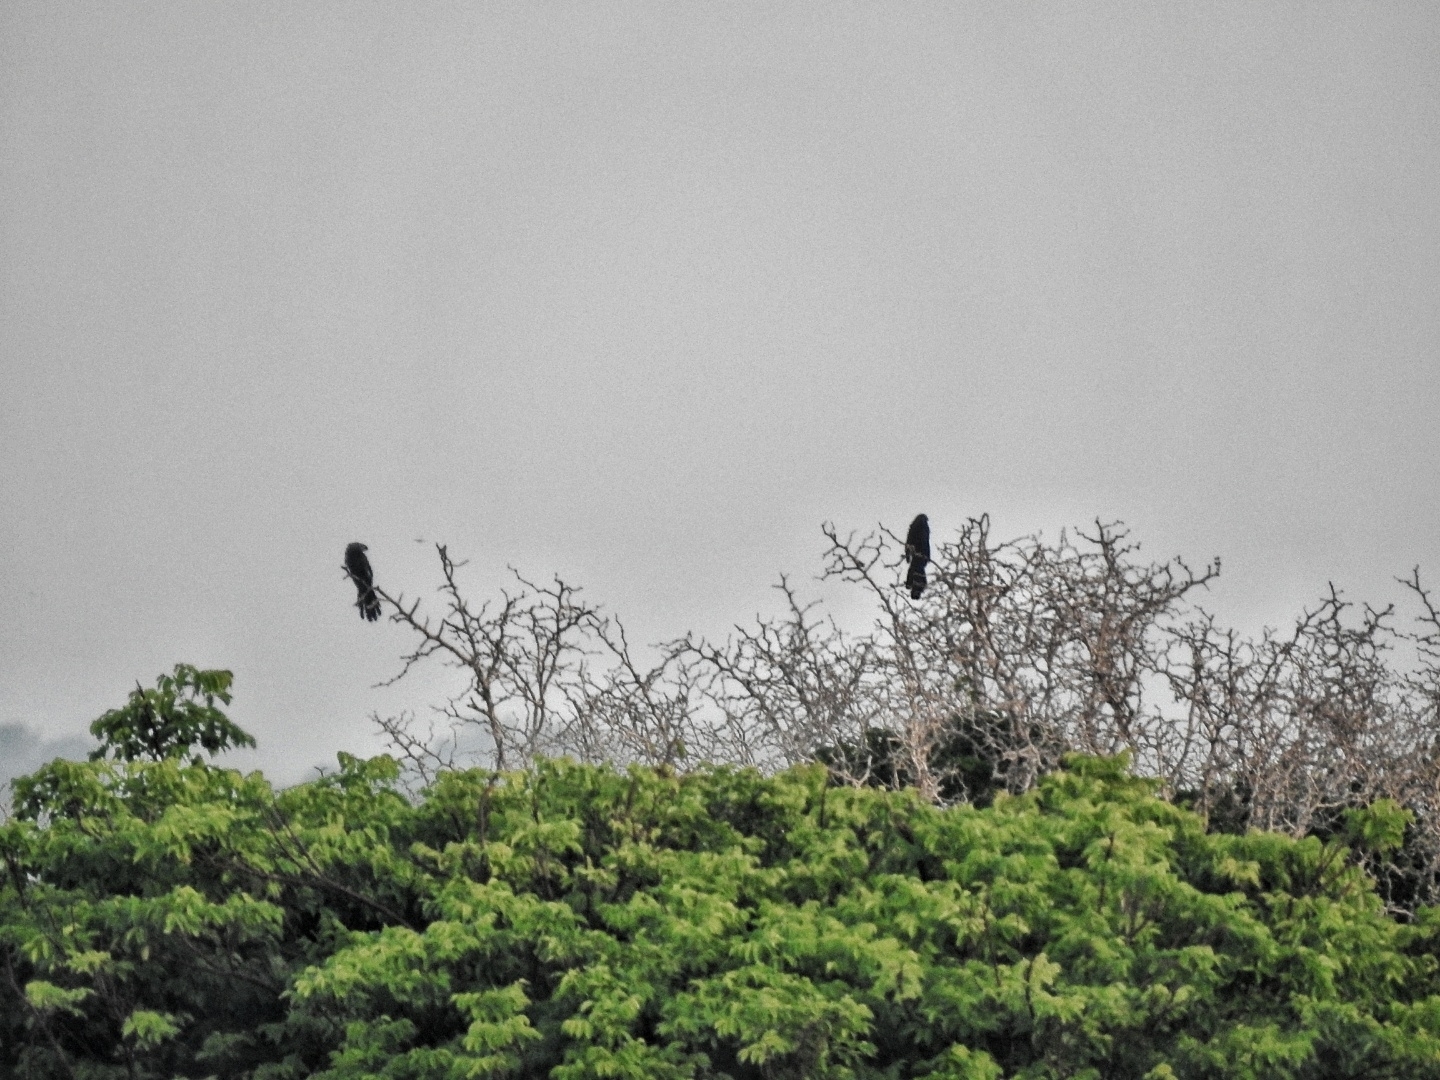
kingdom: Animalia
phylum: Chordata
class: Aves
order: Cuculiformes
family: Cuculidae
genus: Crotophaga
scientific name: Crotophaga sulcirostris
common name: Groove-billed ani
